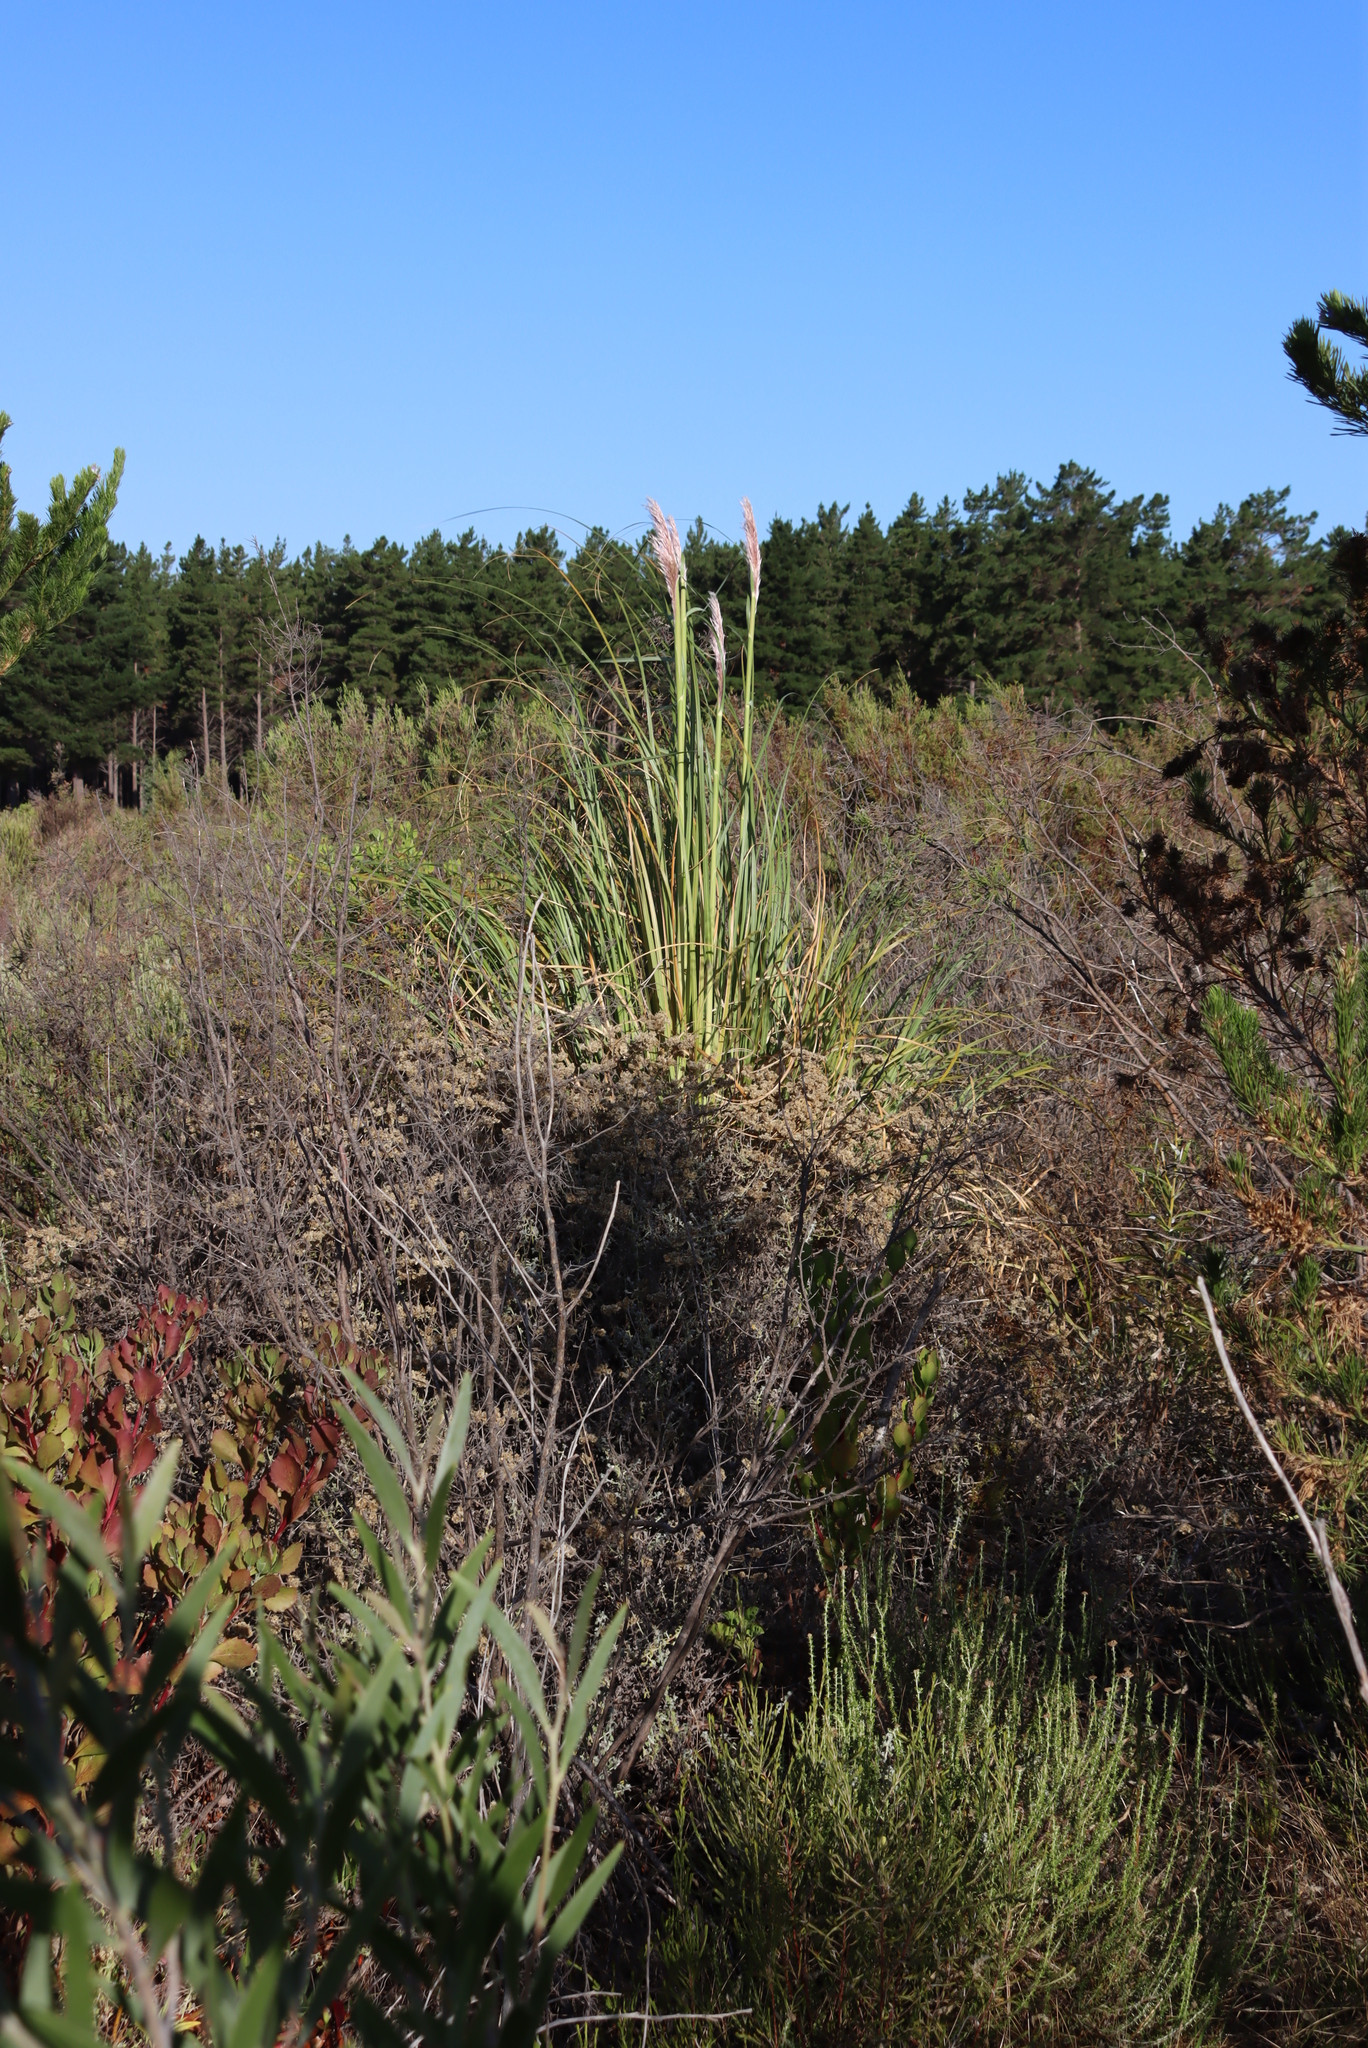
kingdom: Plantae
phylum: Tracheophyta
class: Liliopsida
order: Poales
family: Poaceae
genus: Cortaderia
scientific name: Cortaderia selloana
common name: Uruguayan pampas grass
